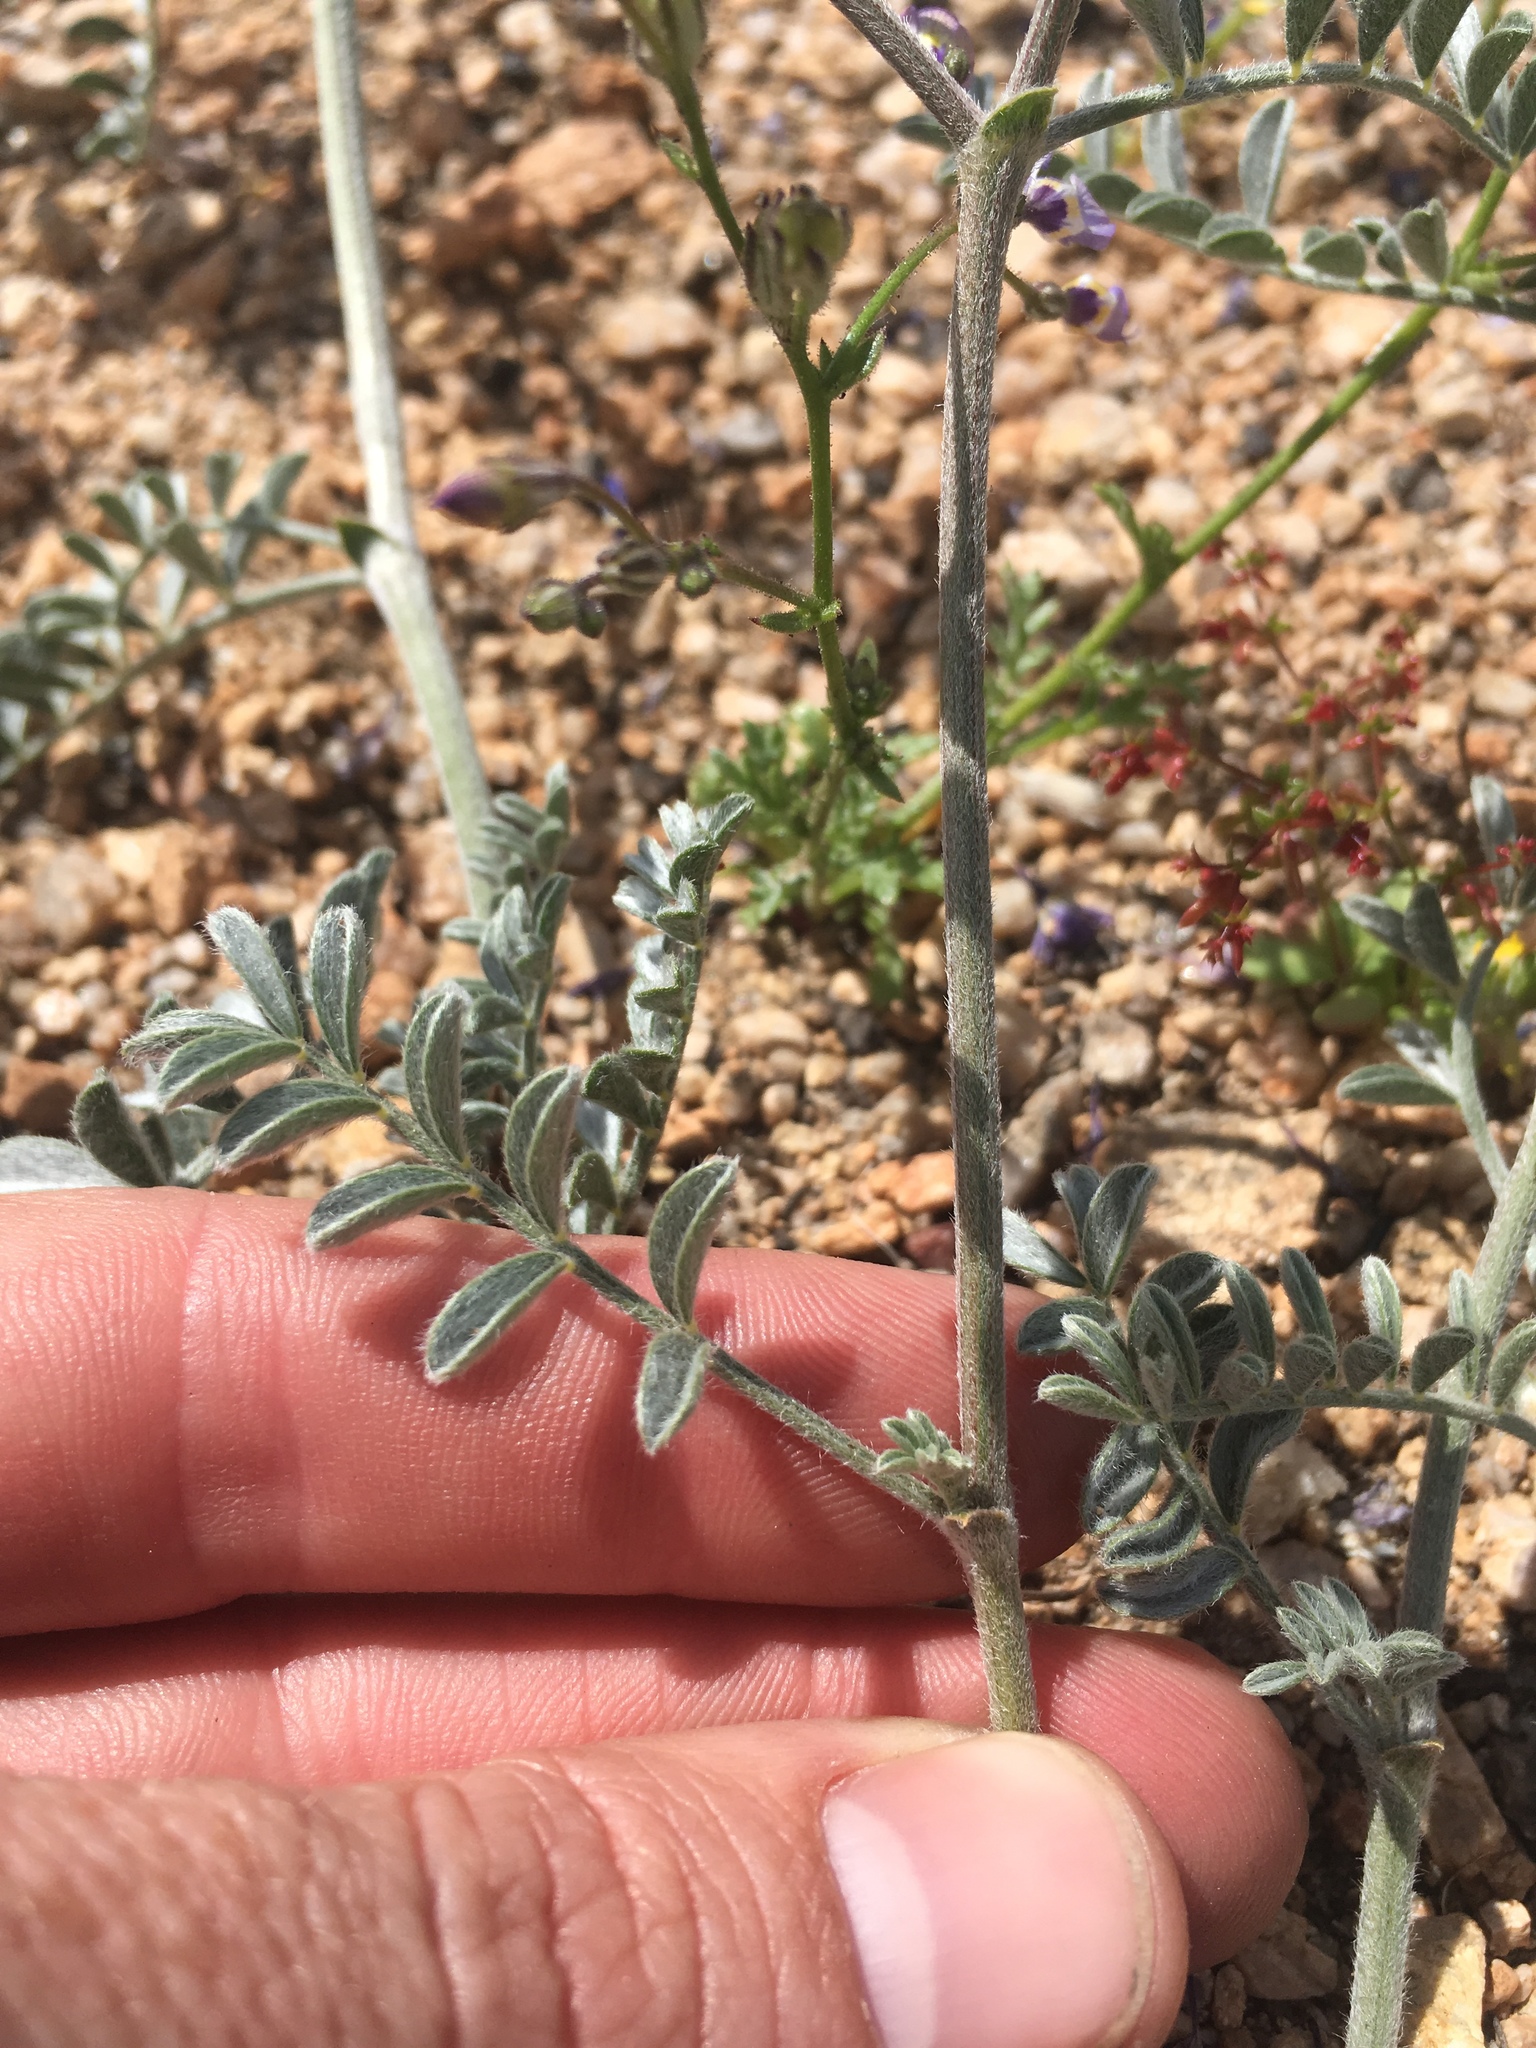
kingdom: Plantae
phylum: Tracheophyta
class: Magnoliopsida
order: Fabales
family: Fabaceae
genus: Astragalus
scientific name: Astragalus sepultipes
